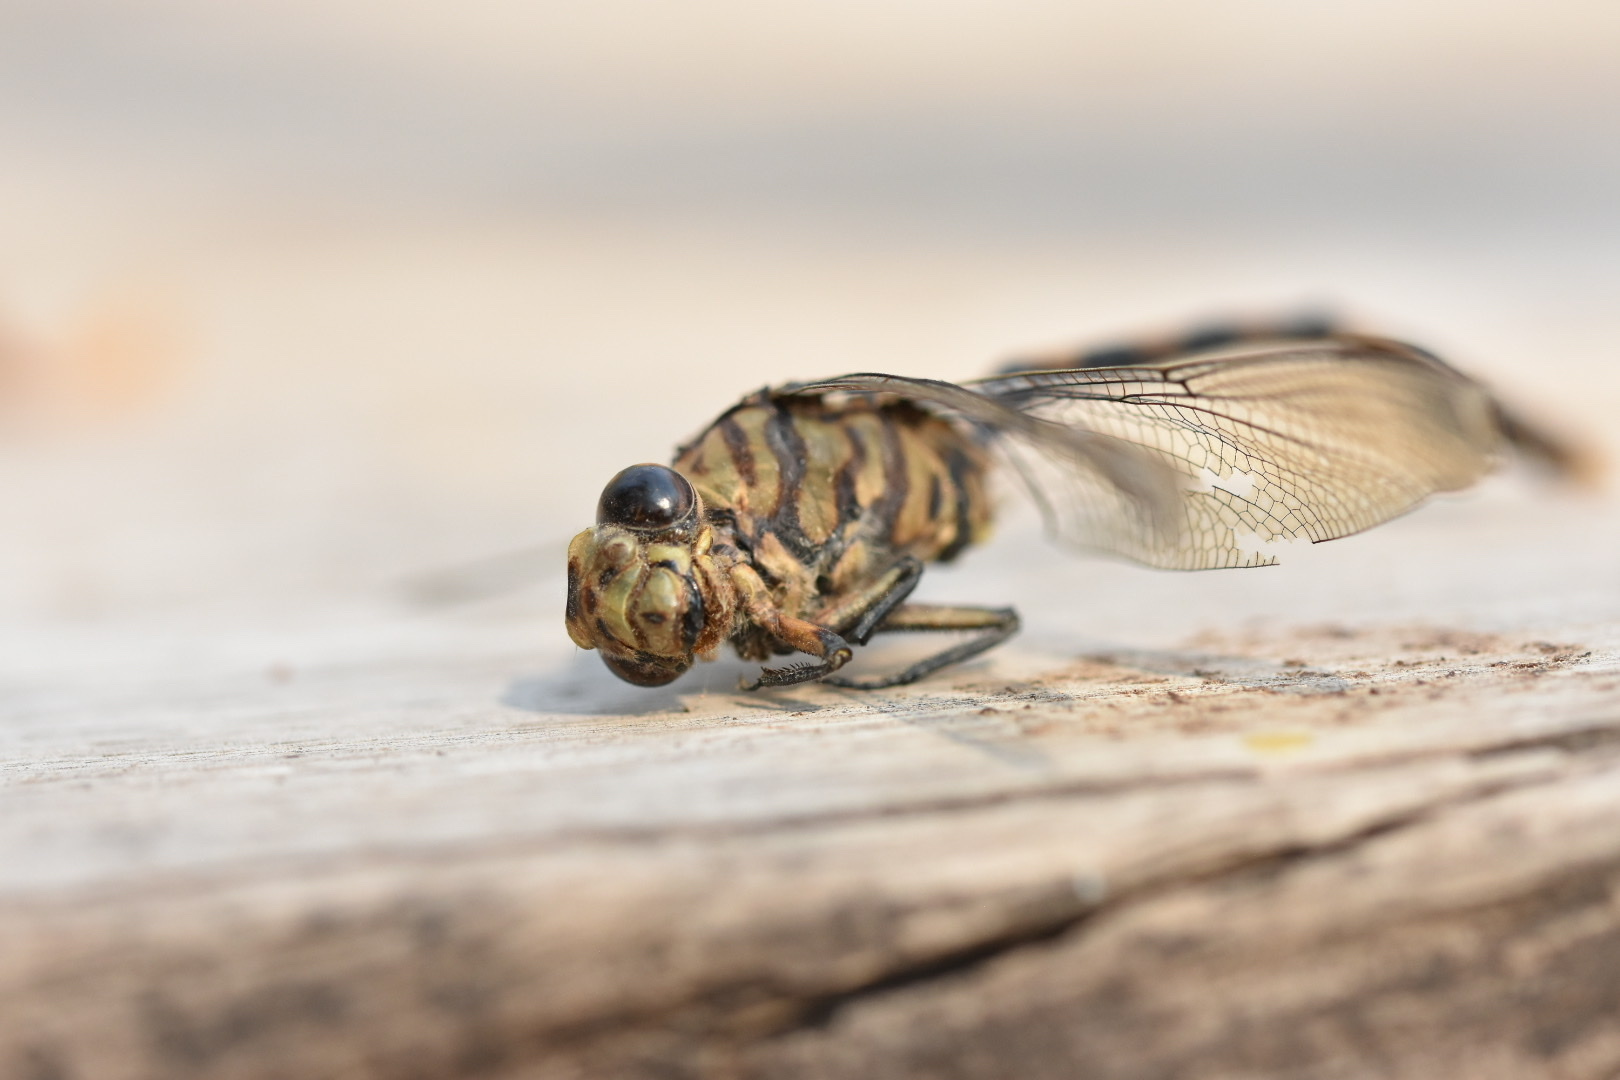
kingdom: Animalia
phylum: Arthropoda
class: Insecta
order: Odonata
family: Gomphidae
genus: Ictinogomphus
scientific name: Ictinogomphus ferox
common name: Common tiger
